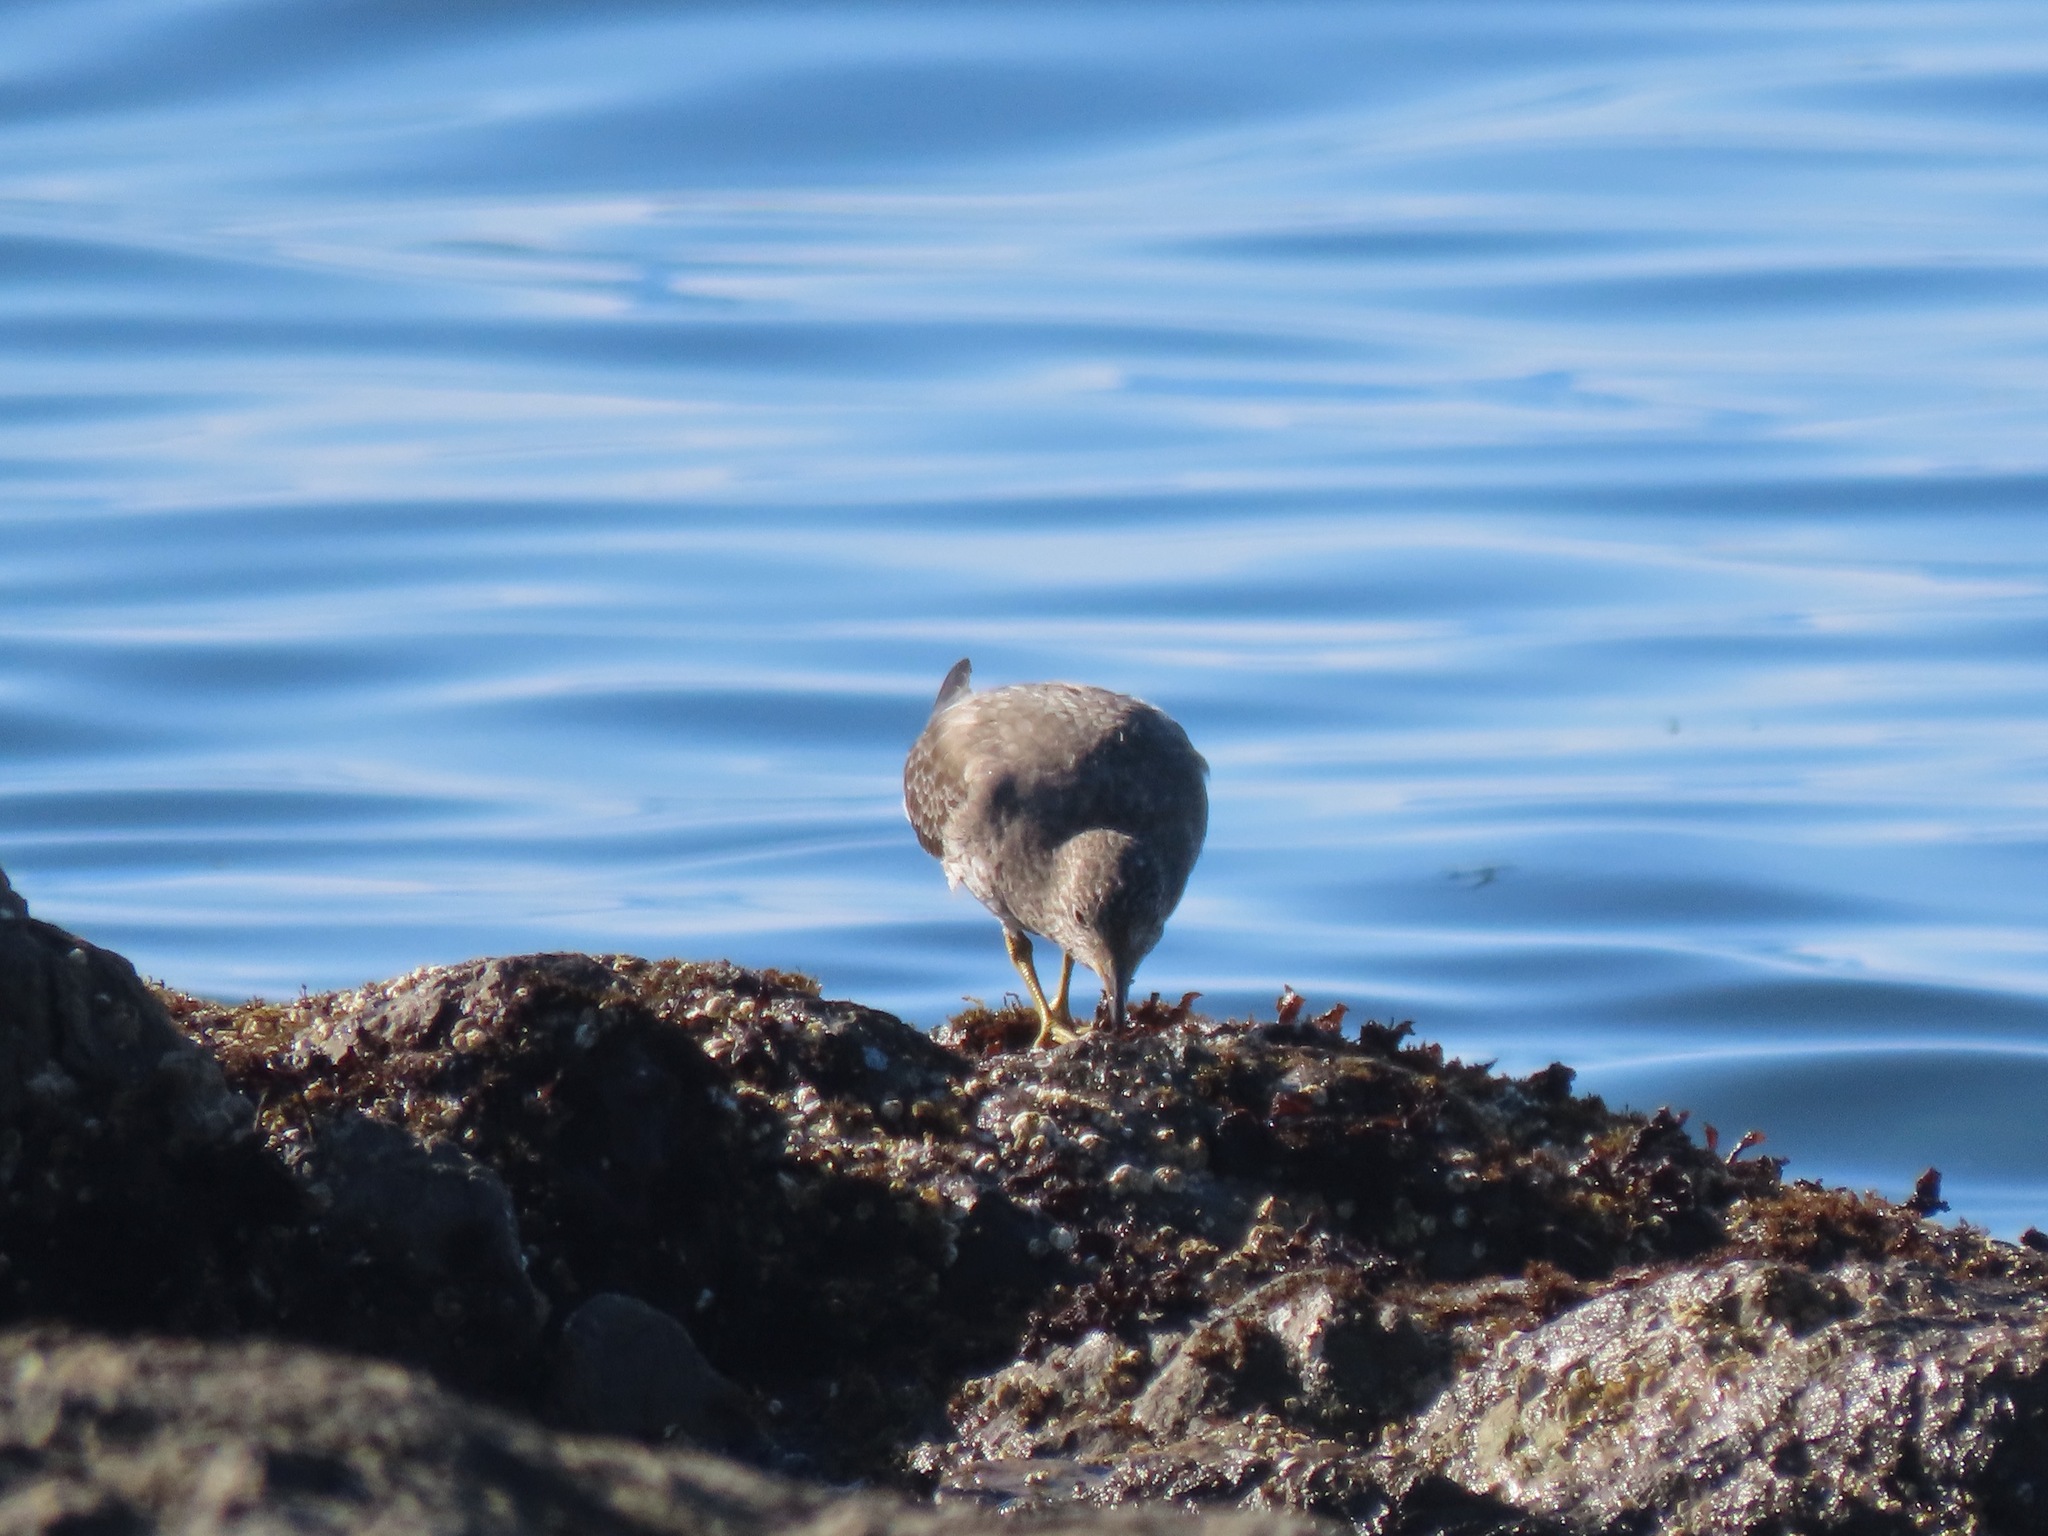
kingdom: Animalia
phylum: Chordata
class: Aves
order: Charadriiformes
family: Scolopacidae
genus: Calidris
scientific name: Calidris virgata
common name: Surfbird
